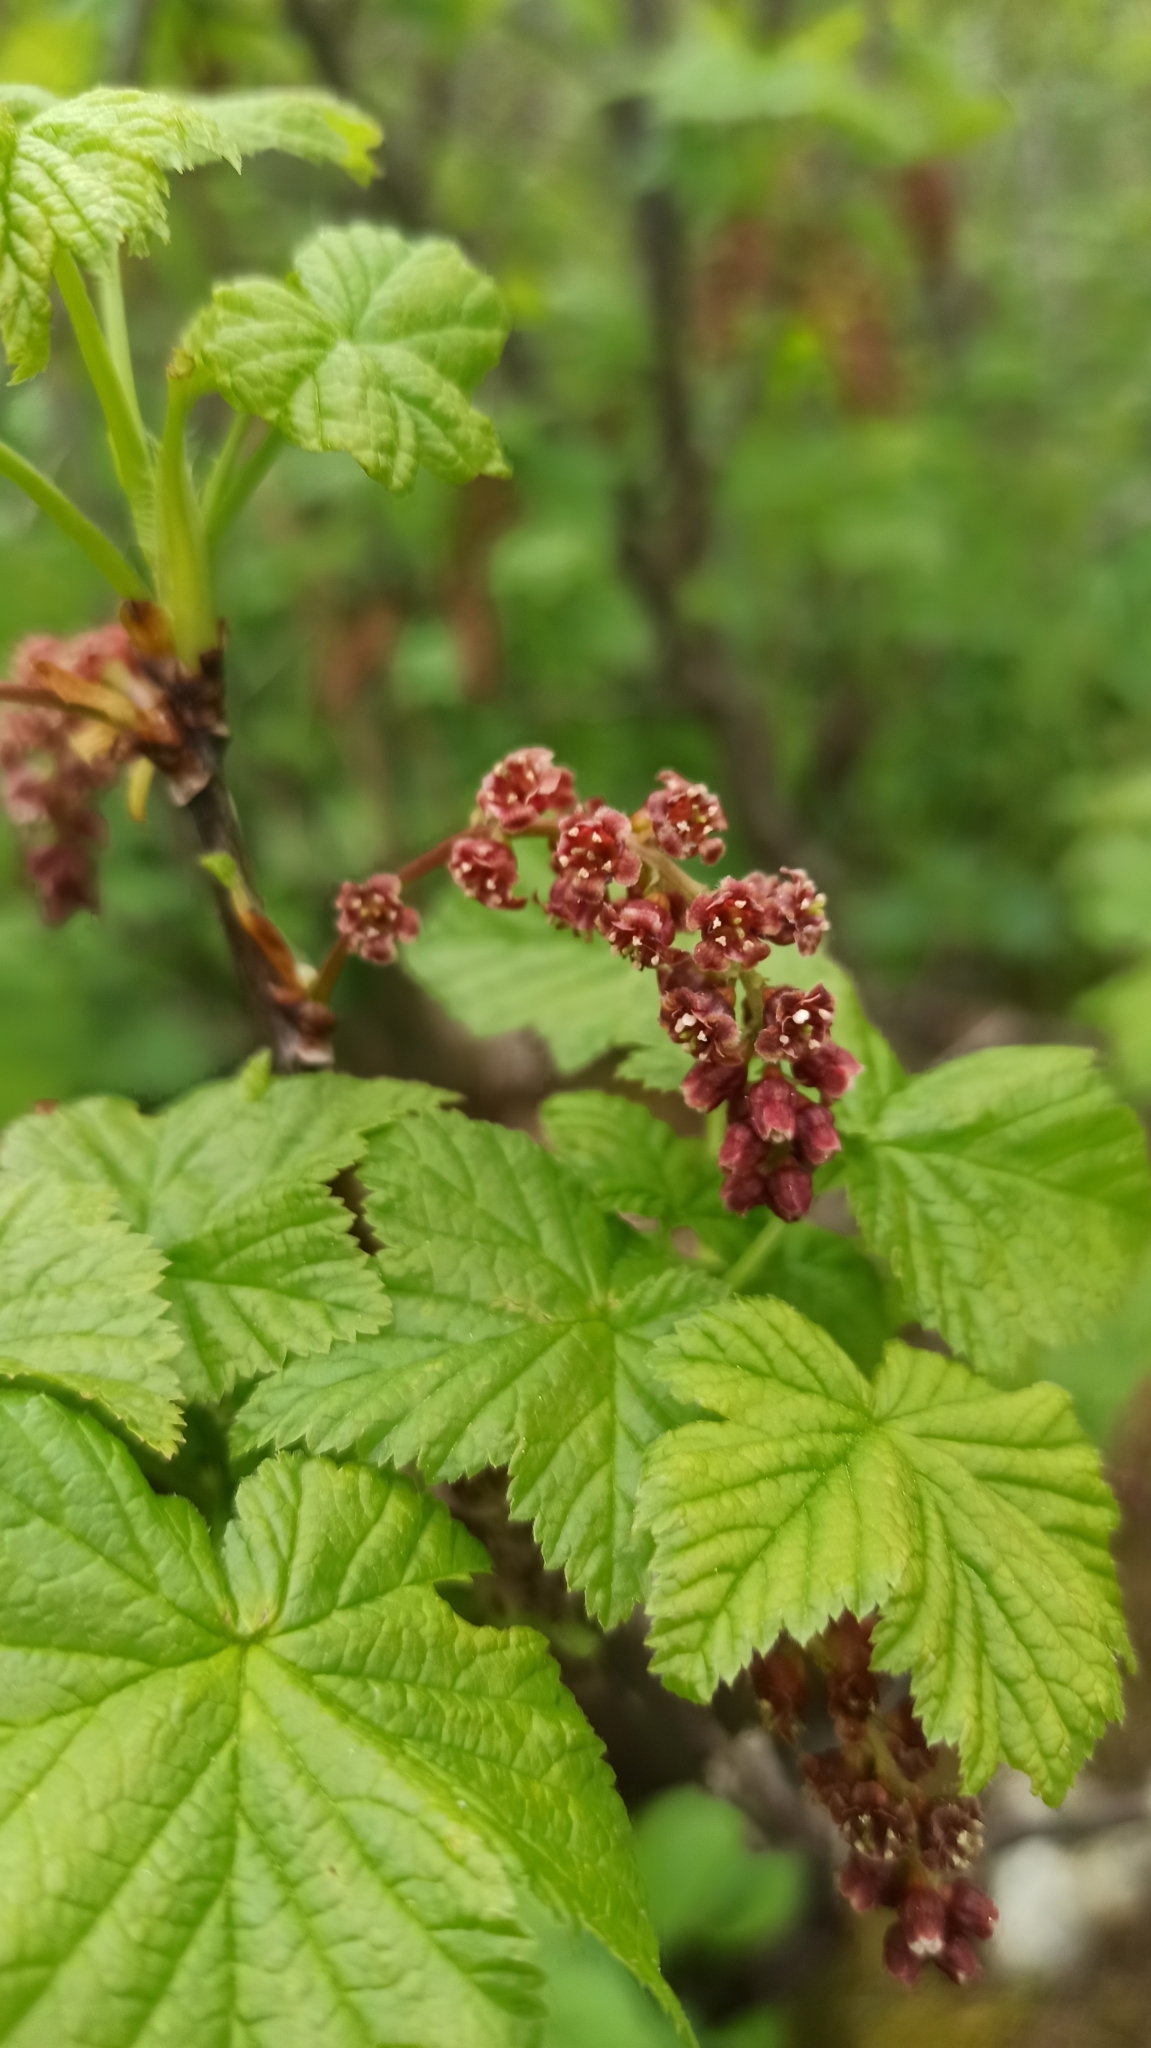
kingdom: Plantae
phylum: Tracheophyta
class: Magnoliopsida
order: Saxifragales
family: Grossulariaceae
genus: Ribes
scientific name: Ribes biebersteinii
